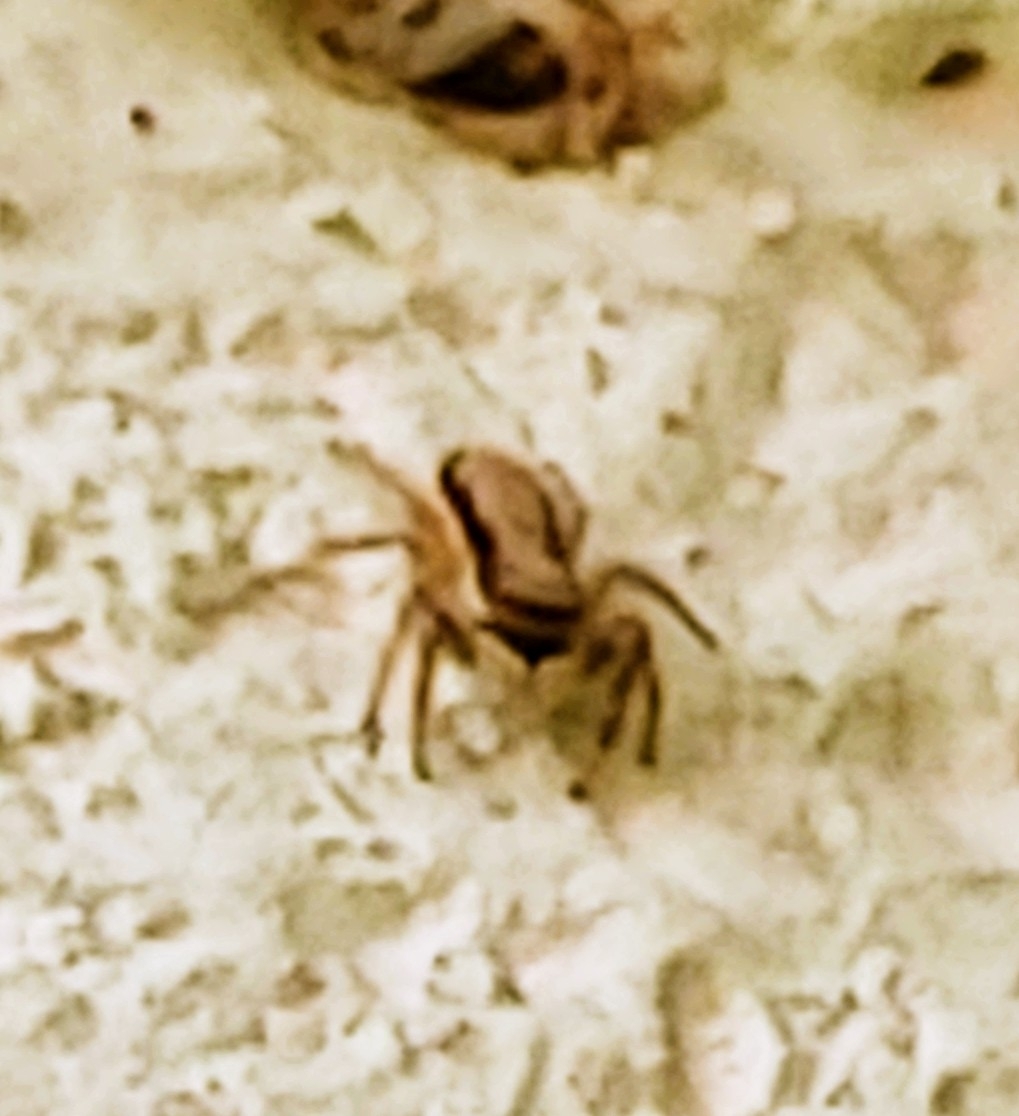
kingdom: Animalia
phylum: Arthropoda
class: Arachnida
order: Araneae
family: Salticidae
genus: Menemerus
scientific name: Menemerus bivittatus
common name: Gray wall jumper
